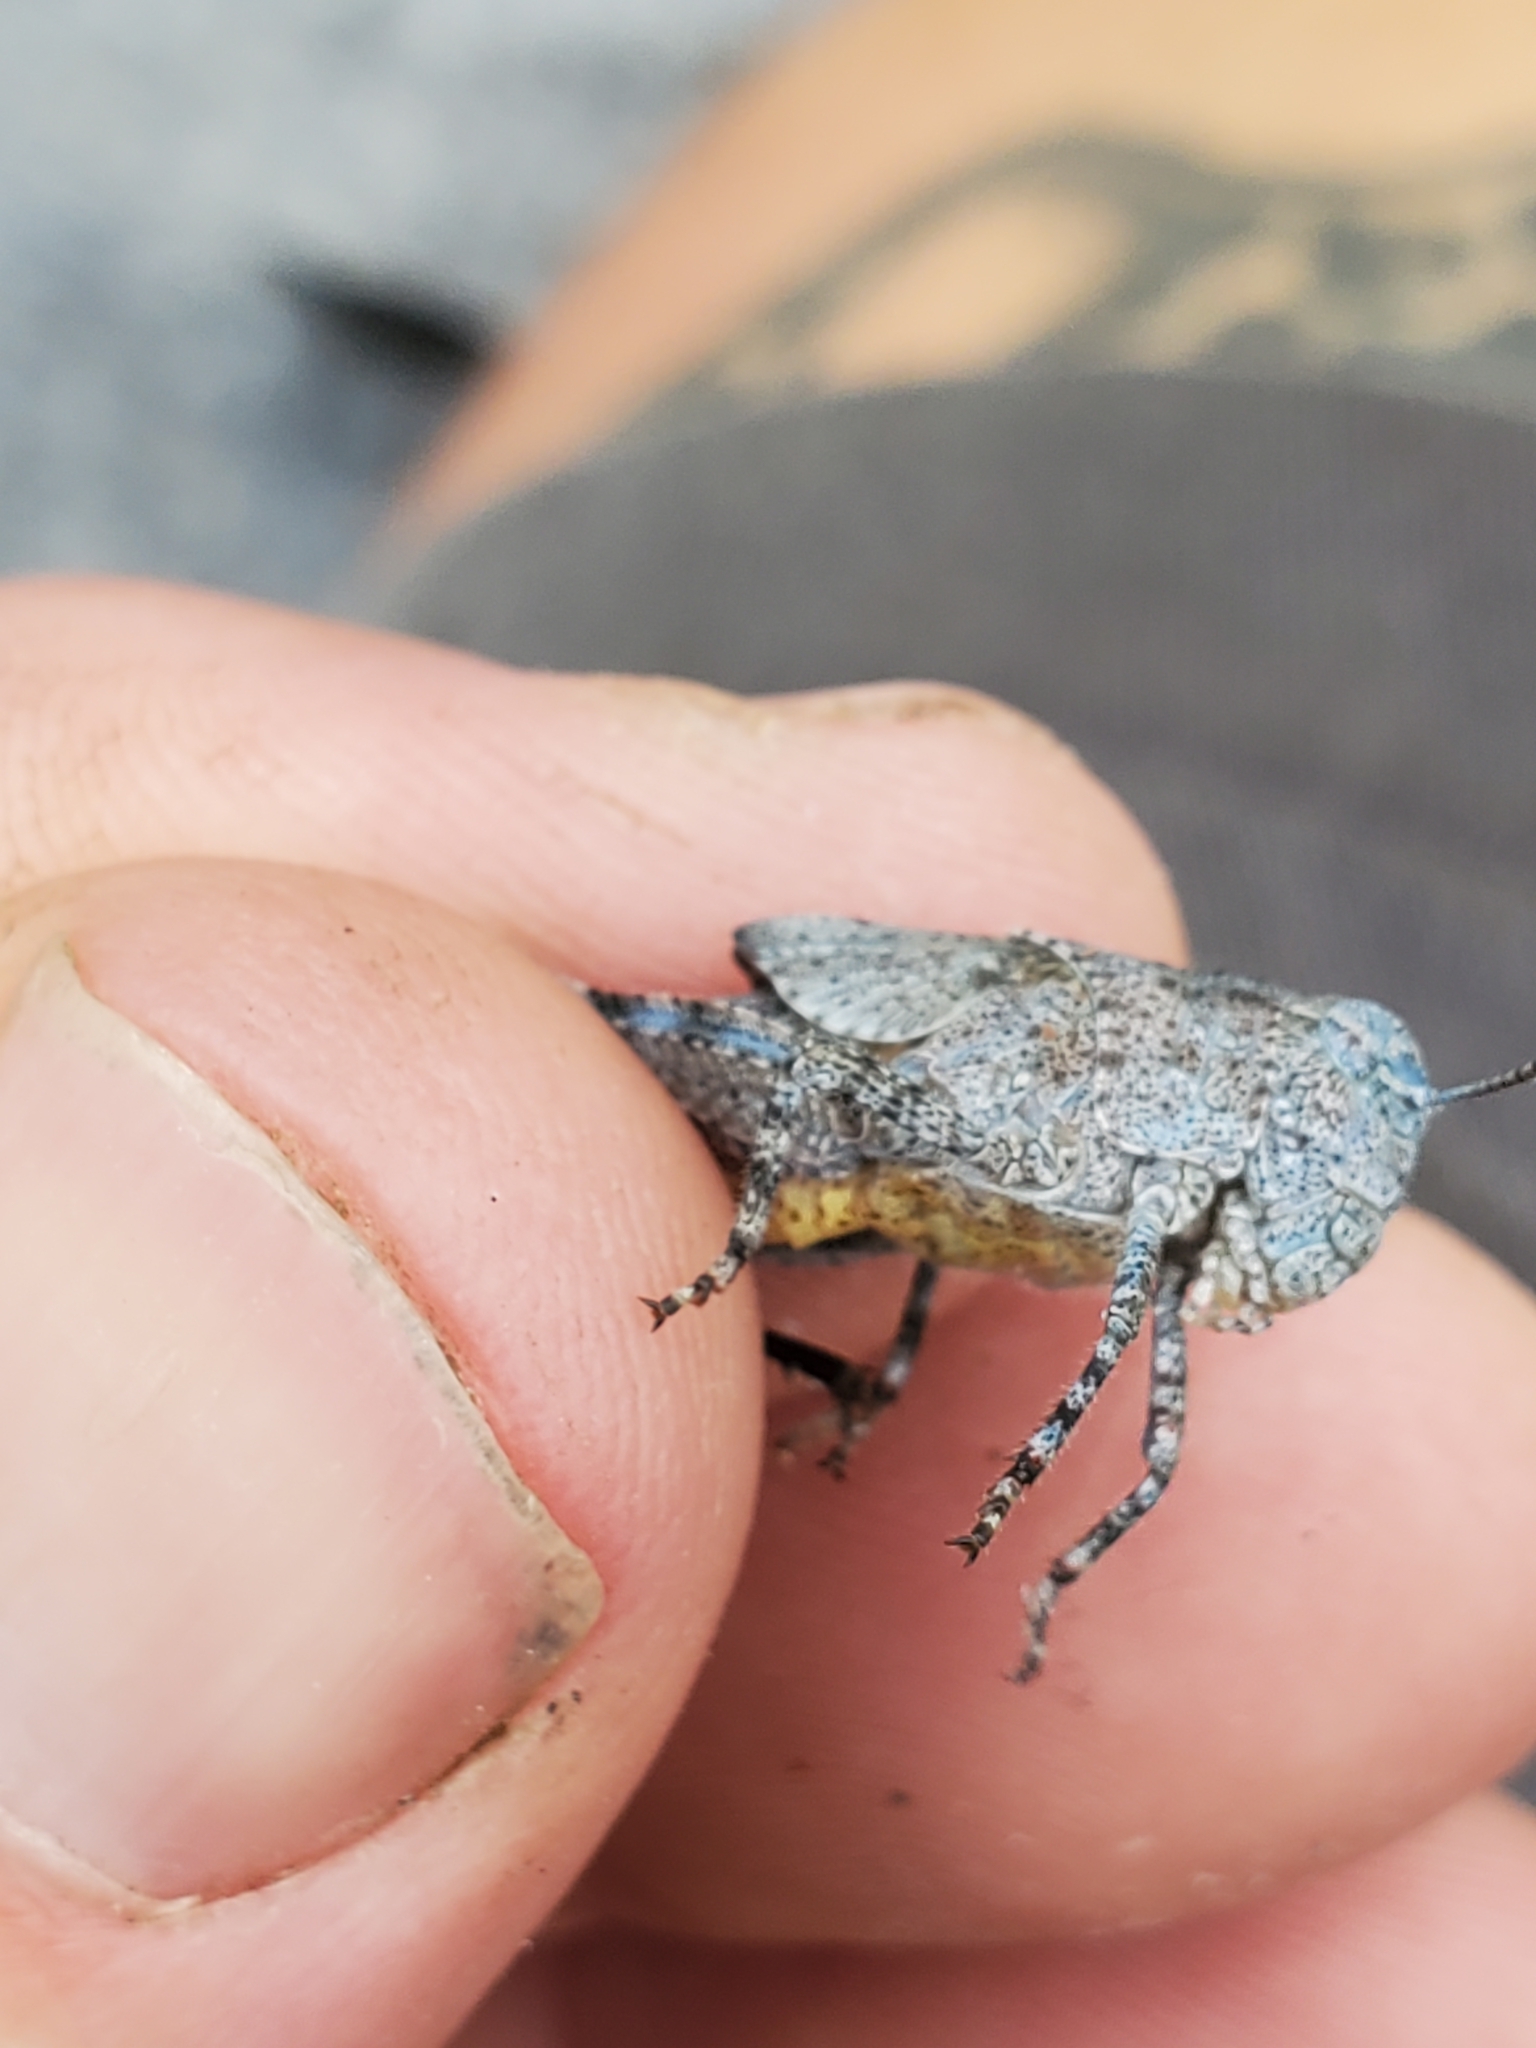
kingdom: Animalia
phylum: Arthropoda
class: Insecta
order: Orthoptera
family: Acrididae
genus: Trimerotropis
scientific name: Trimerotropis verruculata
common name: Crackling forest grasshopper
